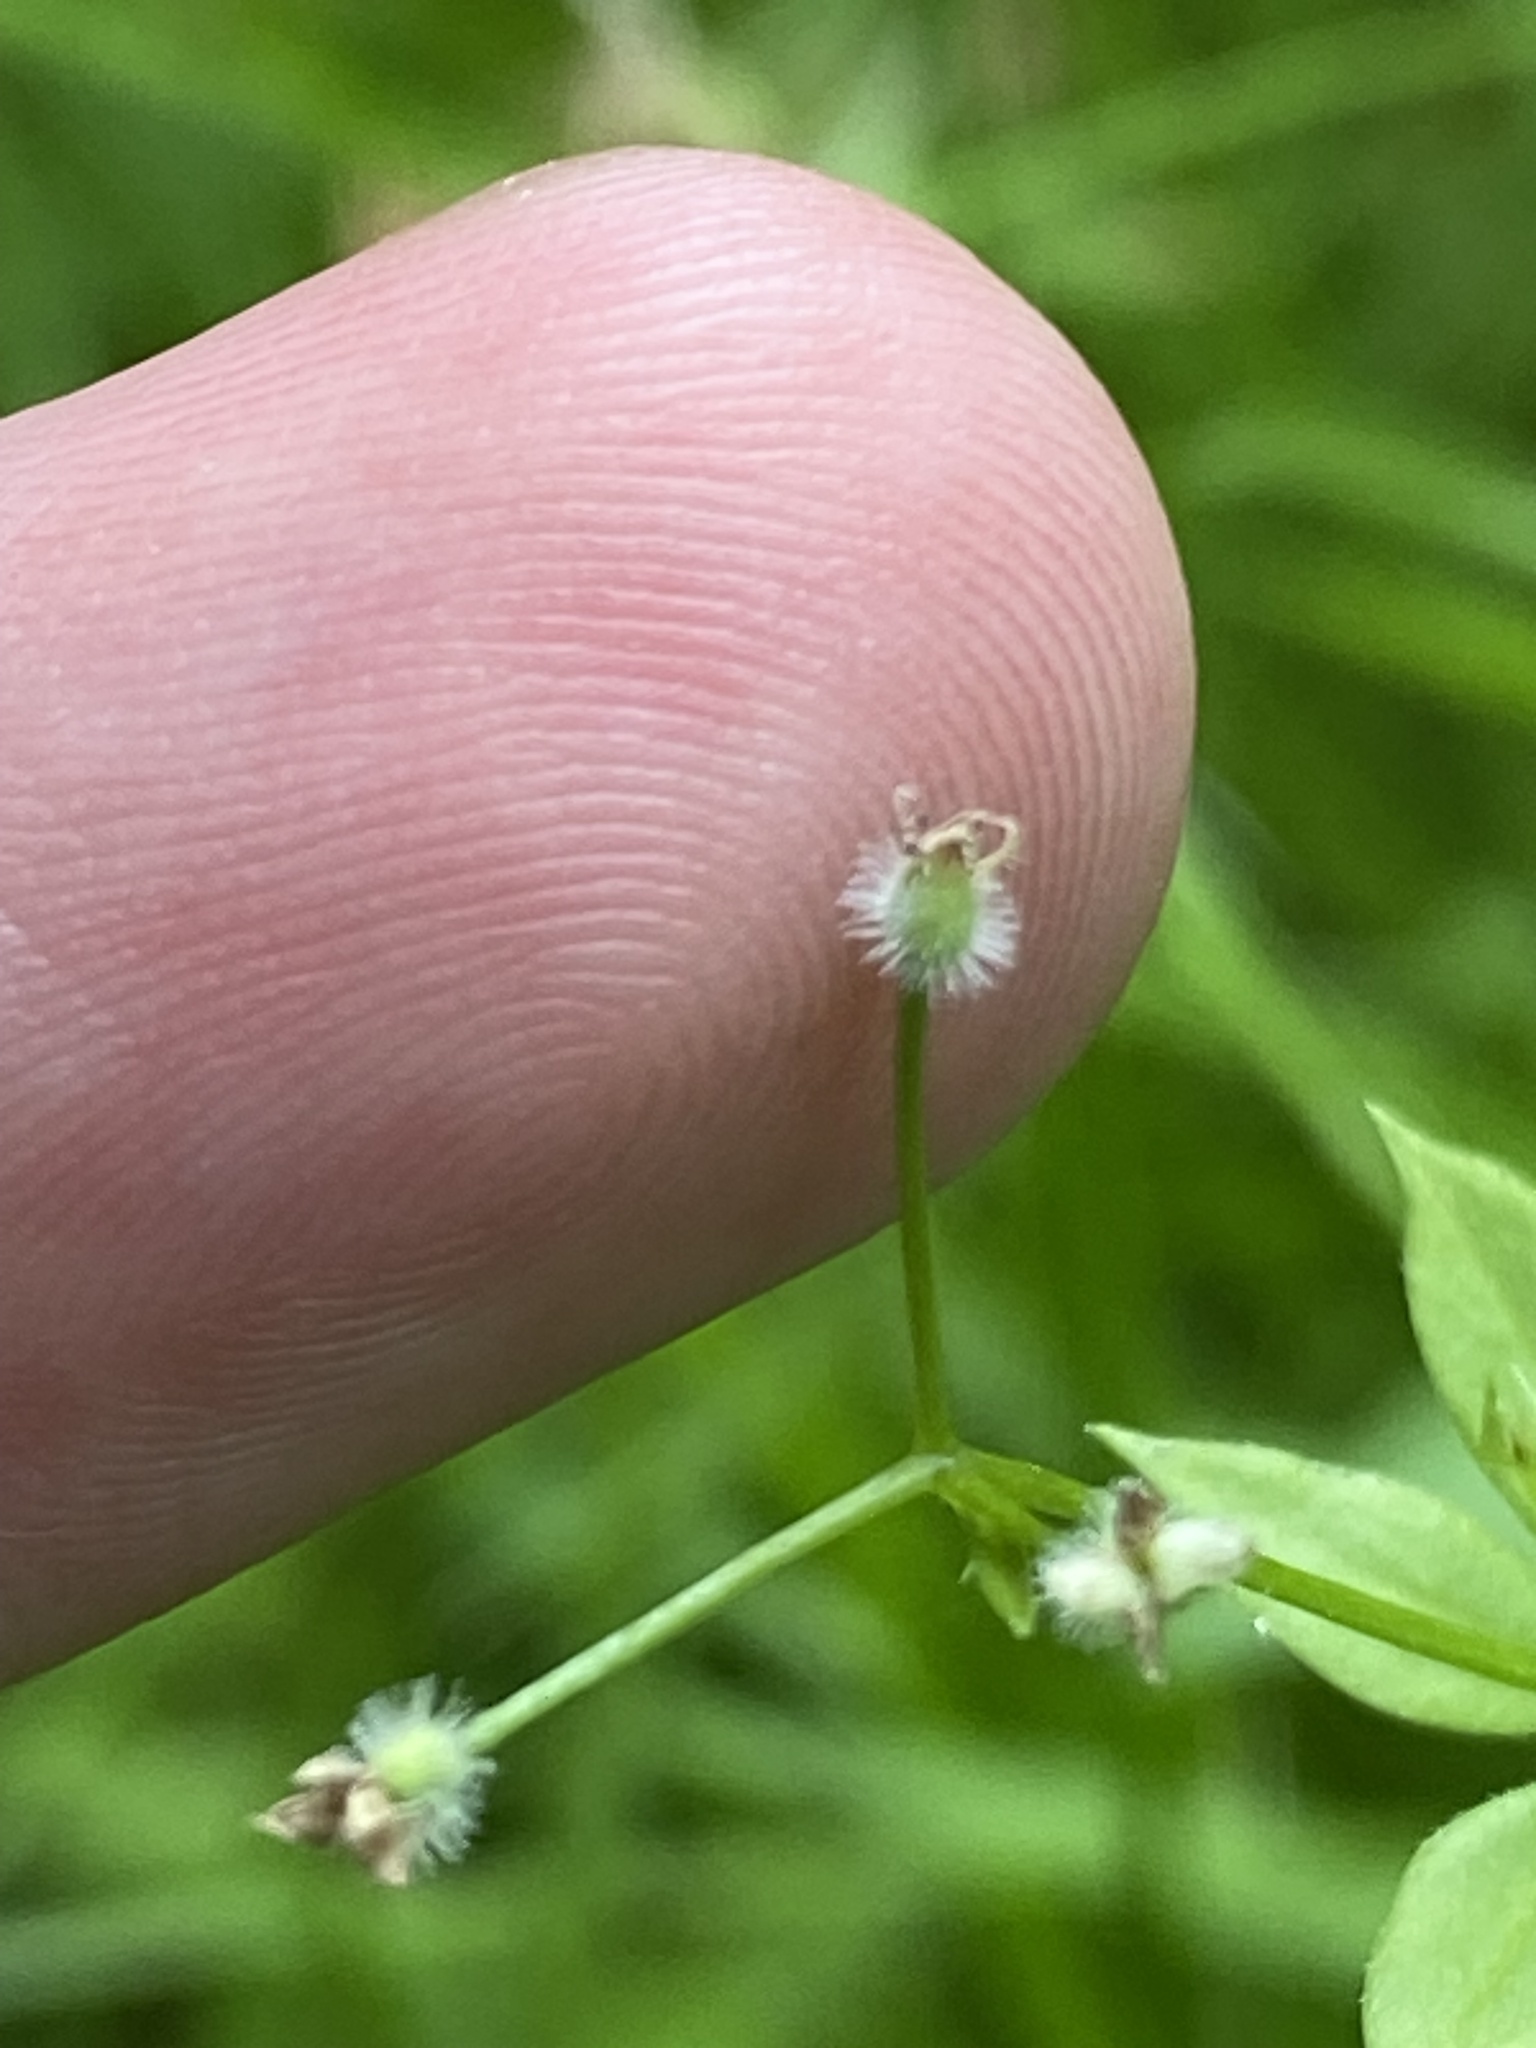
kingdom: Plantae
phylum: Tracheophyta
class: Magnoliopsida
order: Gentianales
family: Rubiaceae
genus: Galium
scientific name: Galium triflorum
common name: Fragrant bedstraw
